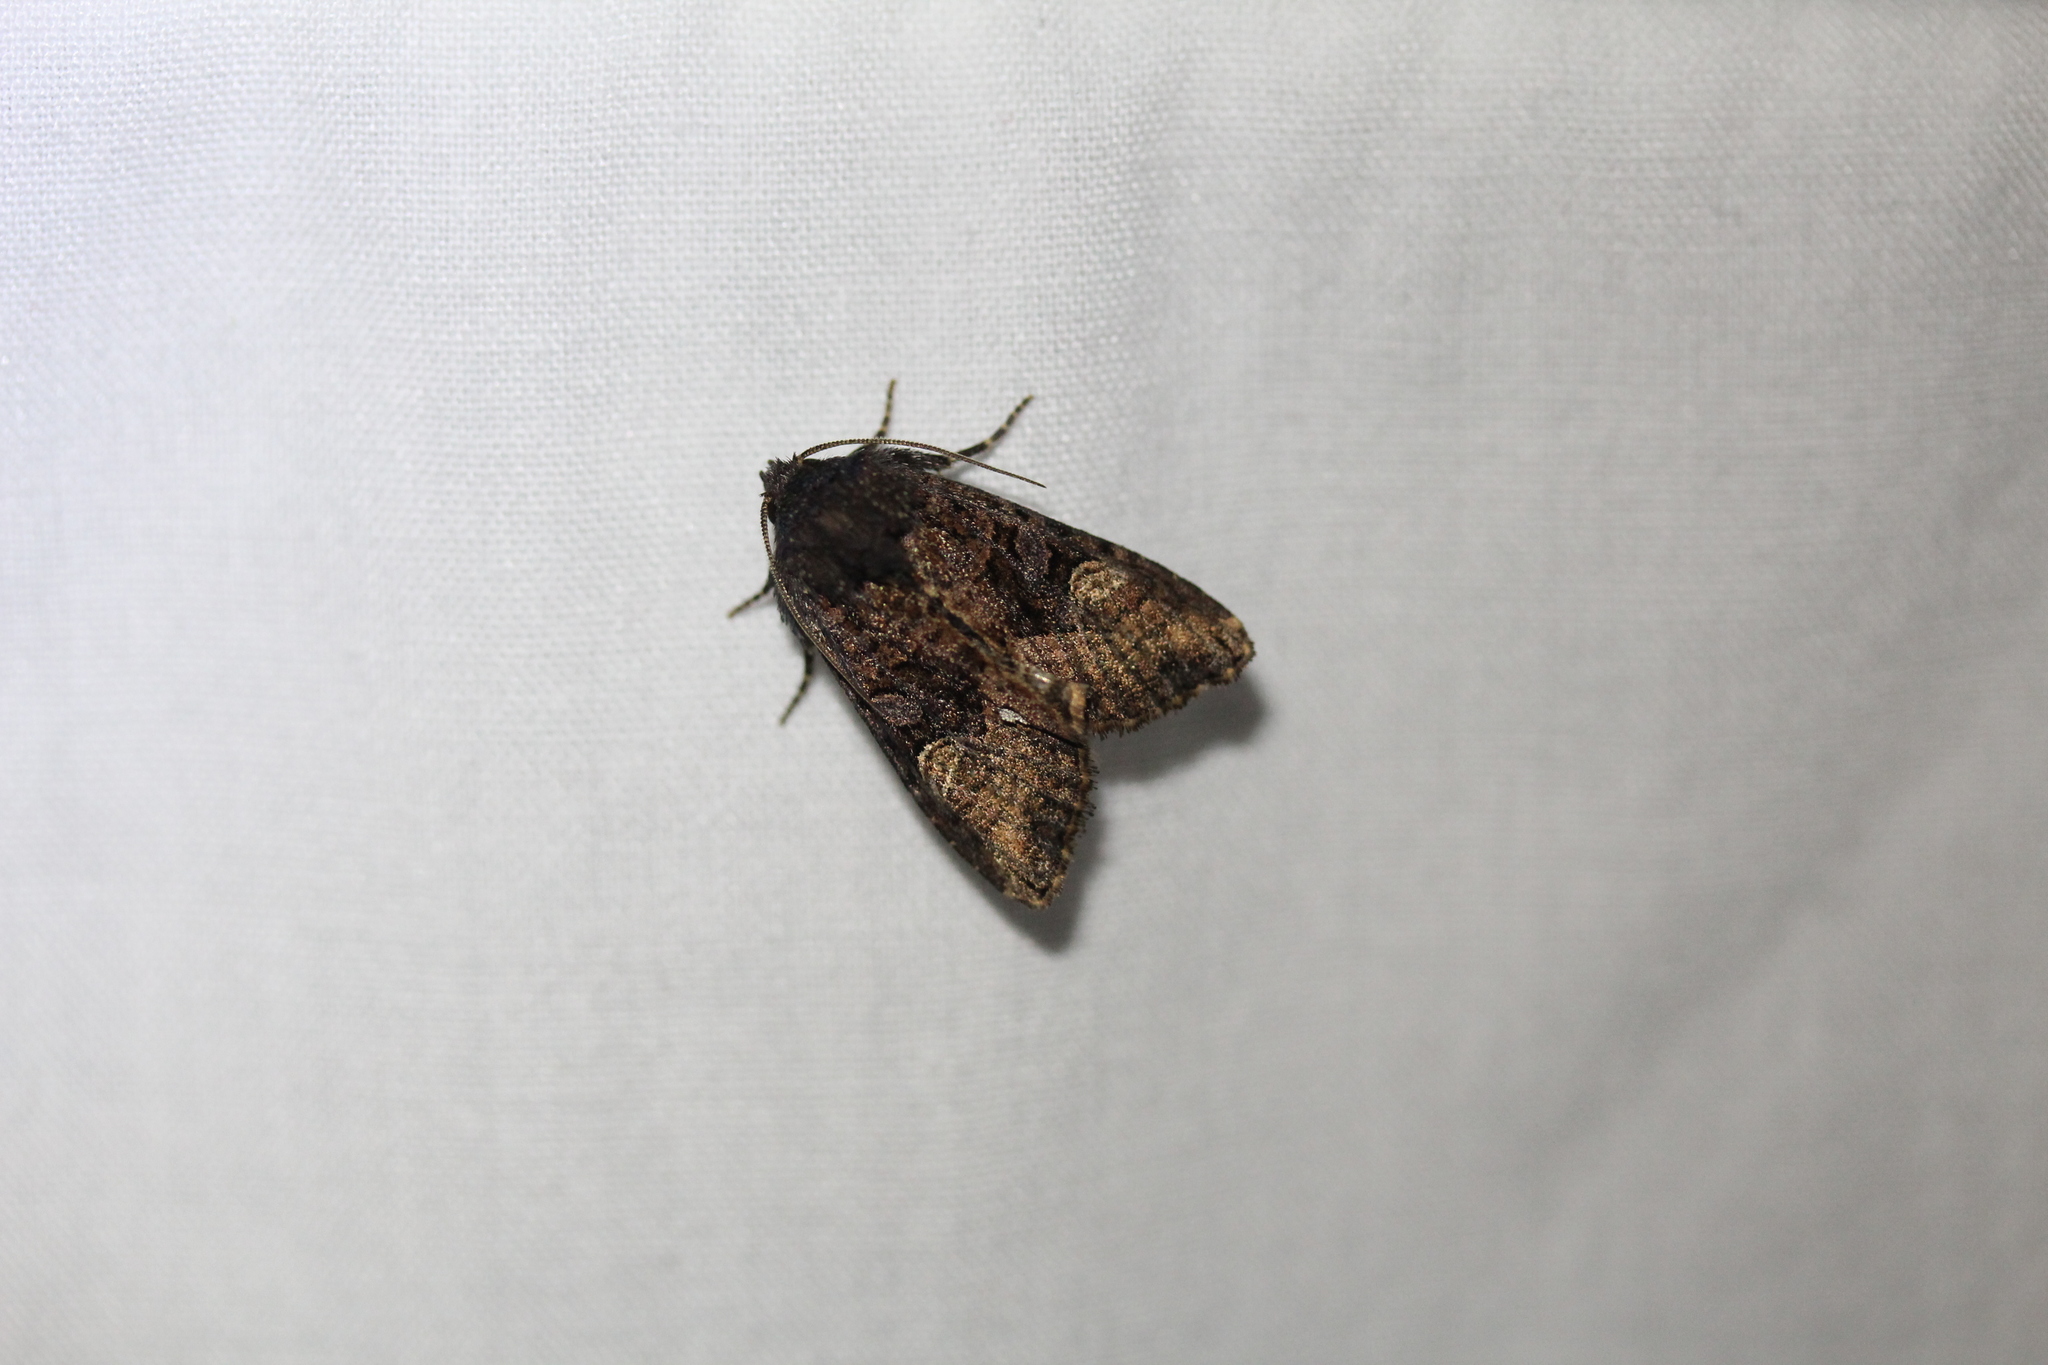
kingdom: Animalia
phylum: Arthropoda
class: Insecta
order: Lepidoptera
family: Noctuidae
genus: Euplexia
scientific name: Euplexia benesimilis
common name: American angle shades
